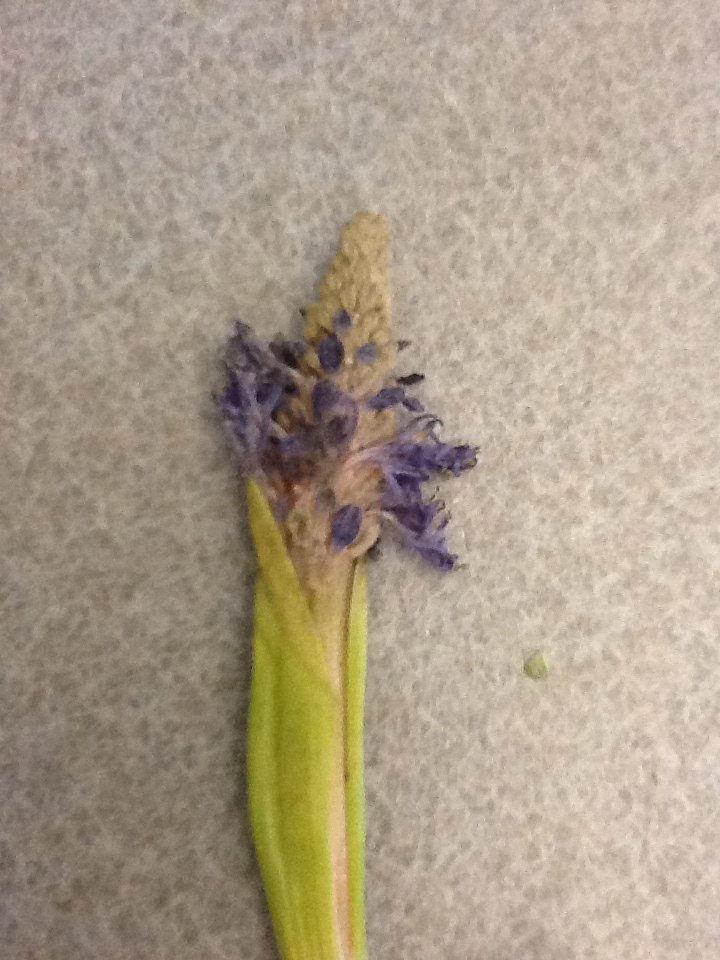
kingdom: Plantae
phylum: Tracheophyta
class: Liliopsida
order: Commelinales
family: Pontederiaceae
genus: Pontederia
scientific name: Pontederia cordata
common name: Pickerelweed
